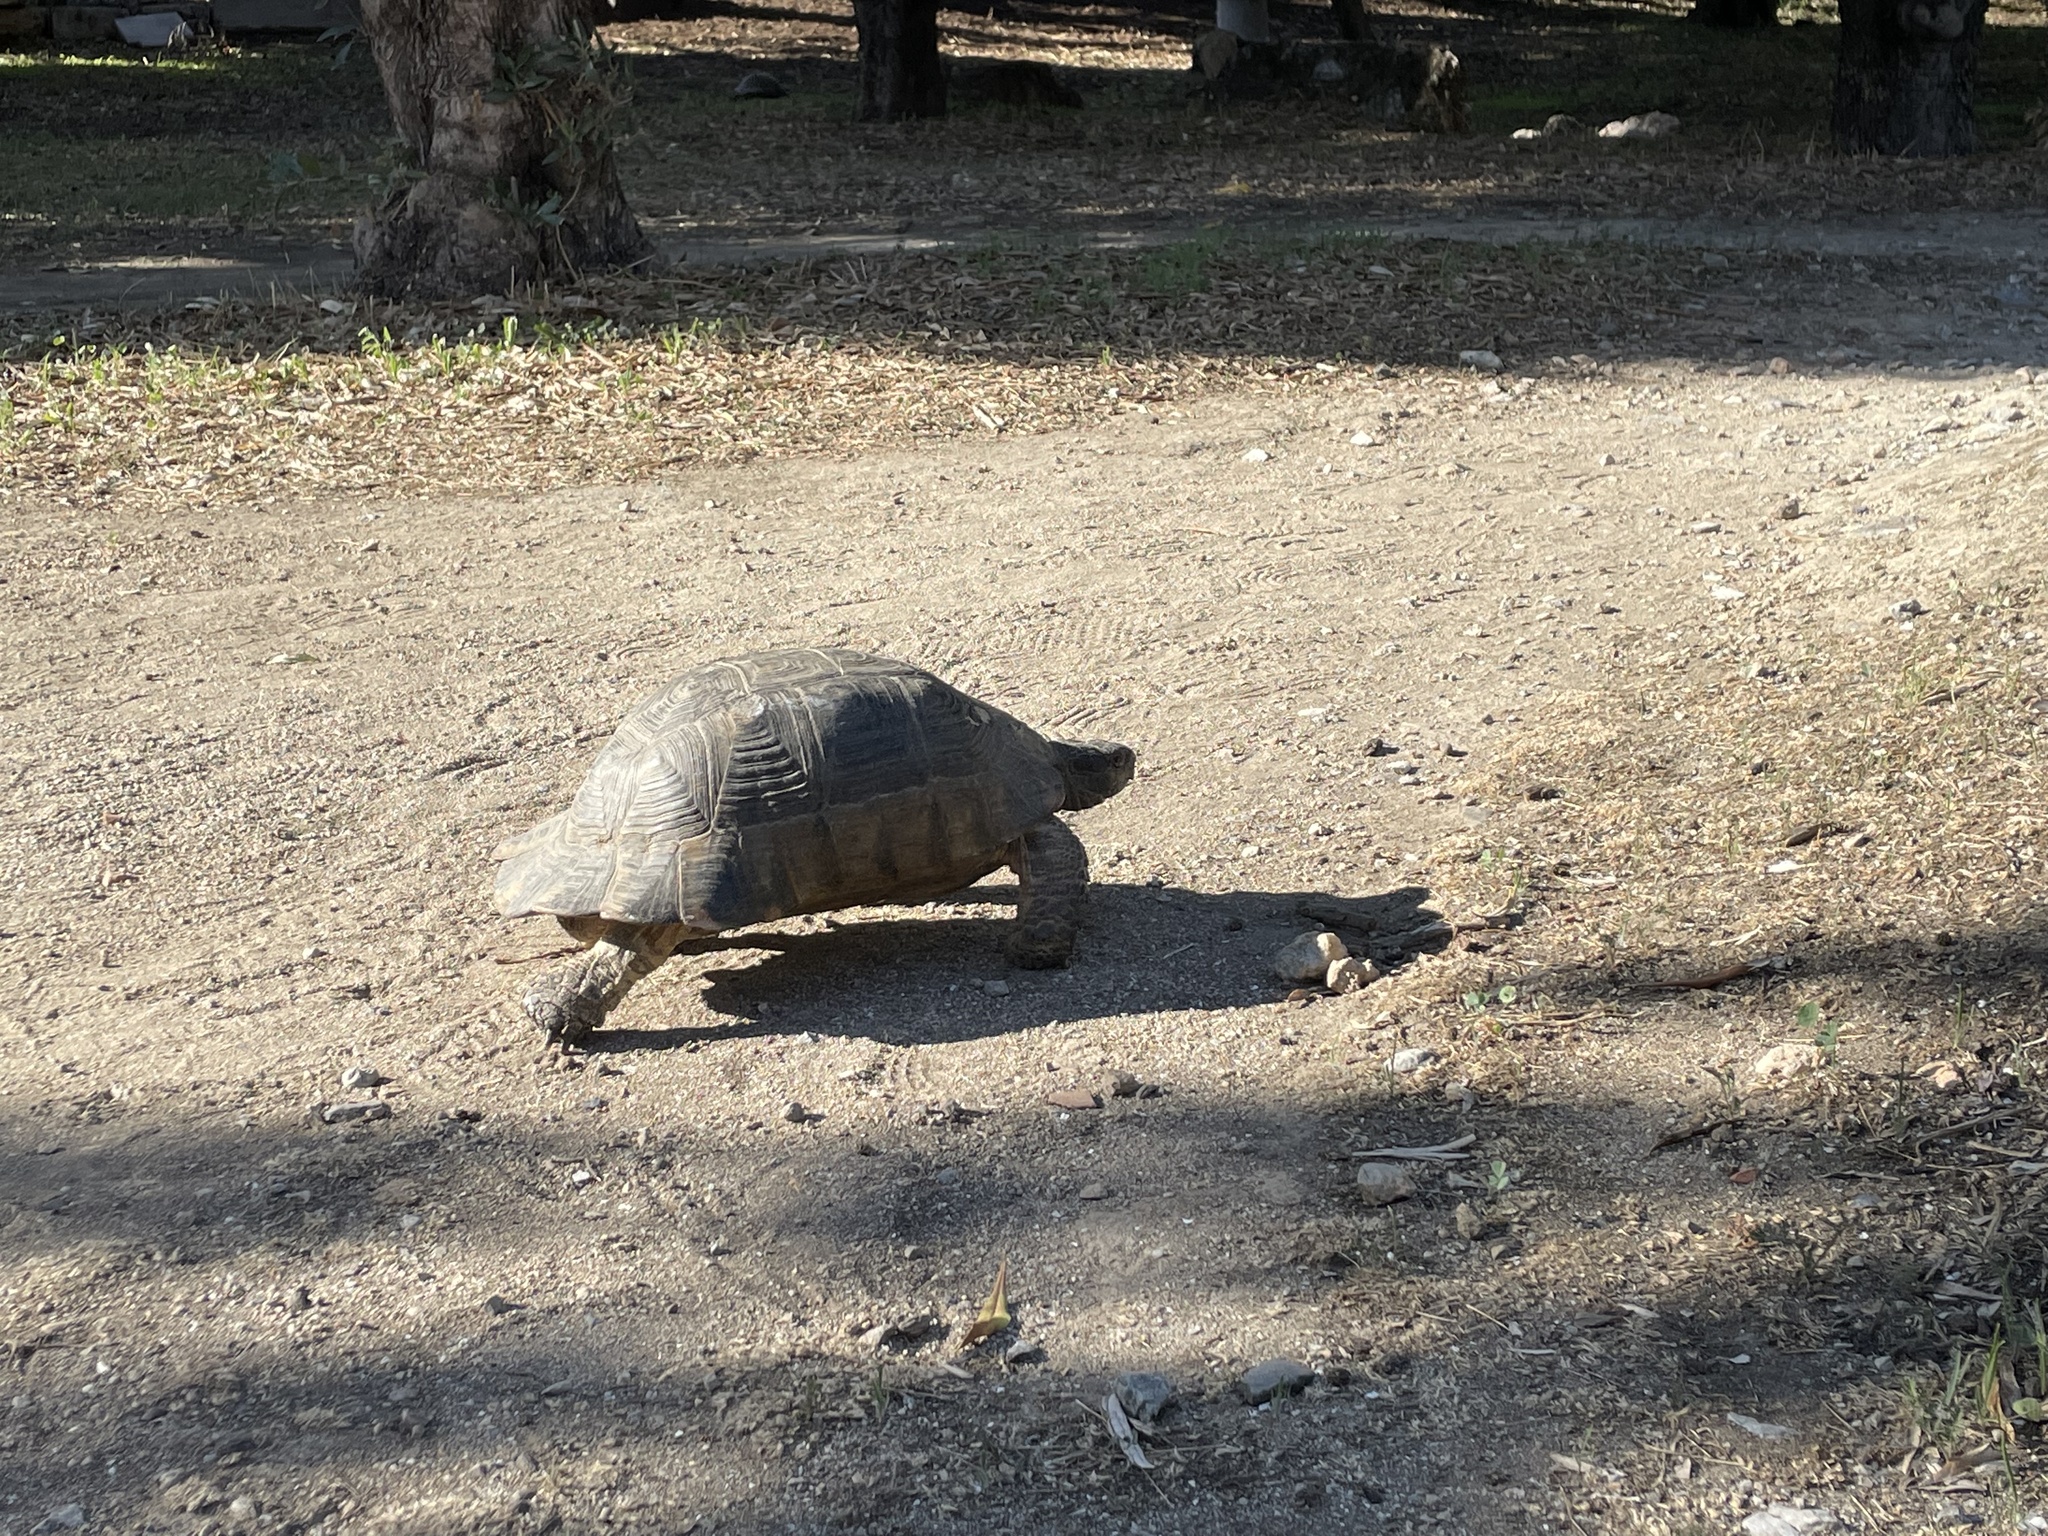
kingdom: Animalia
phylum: Chordata
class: Testudines
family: Testudinidae
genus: Testudo
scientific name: Testudo marginata
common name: Marginated tortoise
